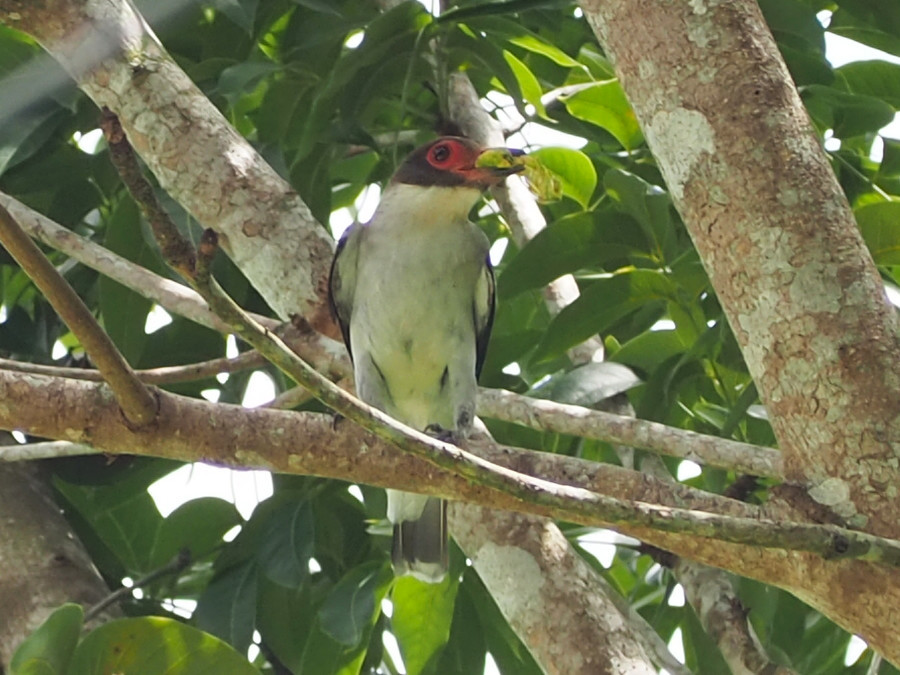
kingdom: Animalia
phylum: Chordata
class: Aves
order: Passeriformes
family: Cotingidae
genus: Tityra
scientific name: Tityra semifasciata
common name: Masked tityra
